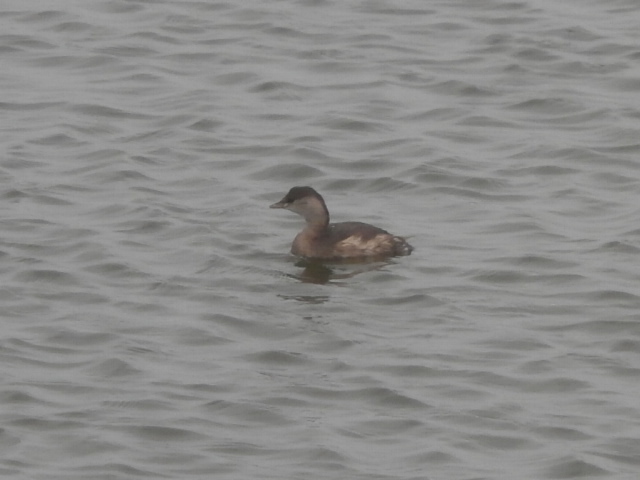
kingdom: Animalia
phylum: Chordata
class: Aves
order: Podicipediformes
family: Podicipedidae
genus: Tachybaptus
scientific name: Tachybaptus ruficollis
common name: Little grebe
